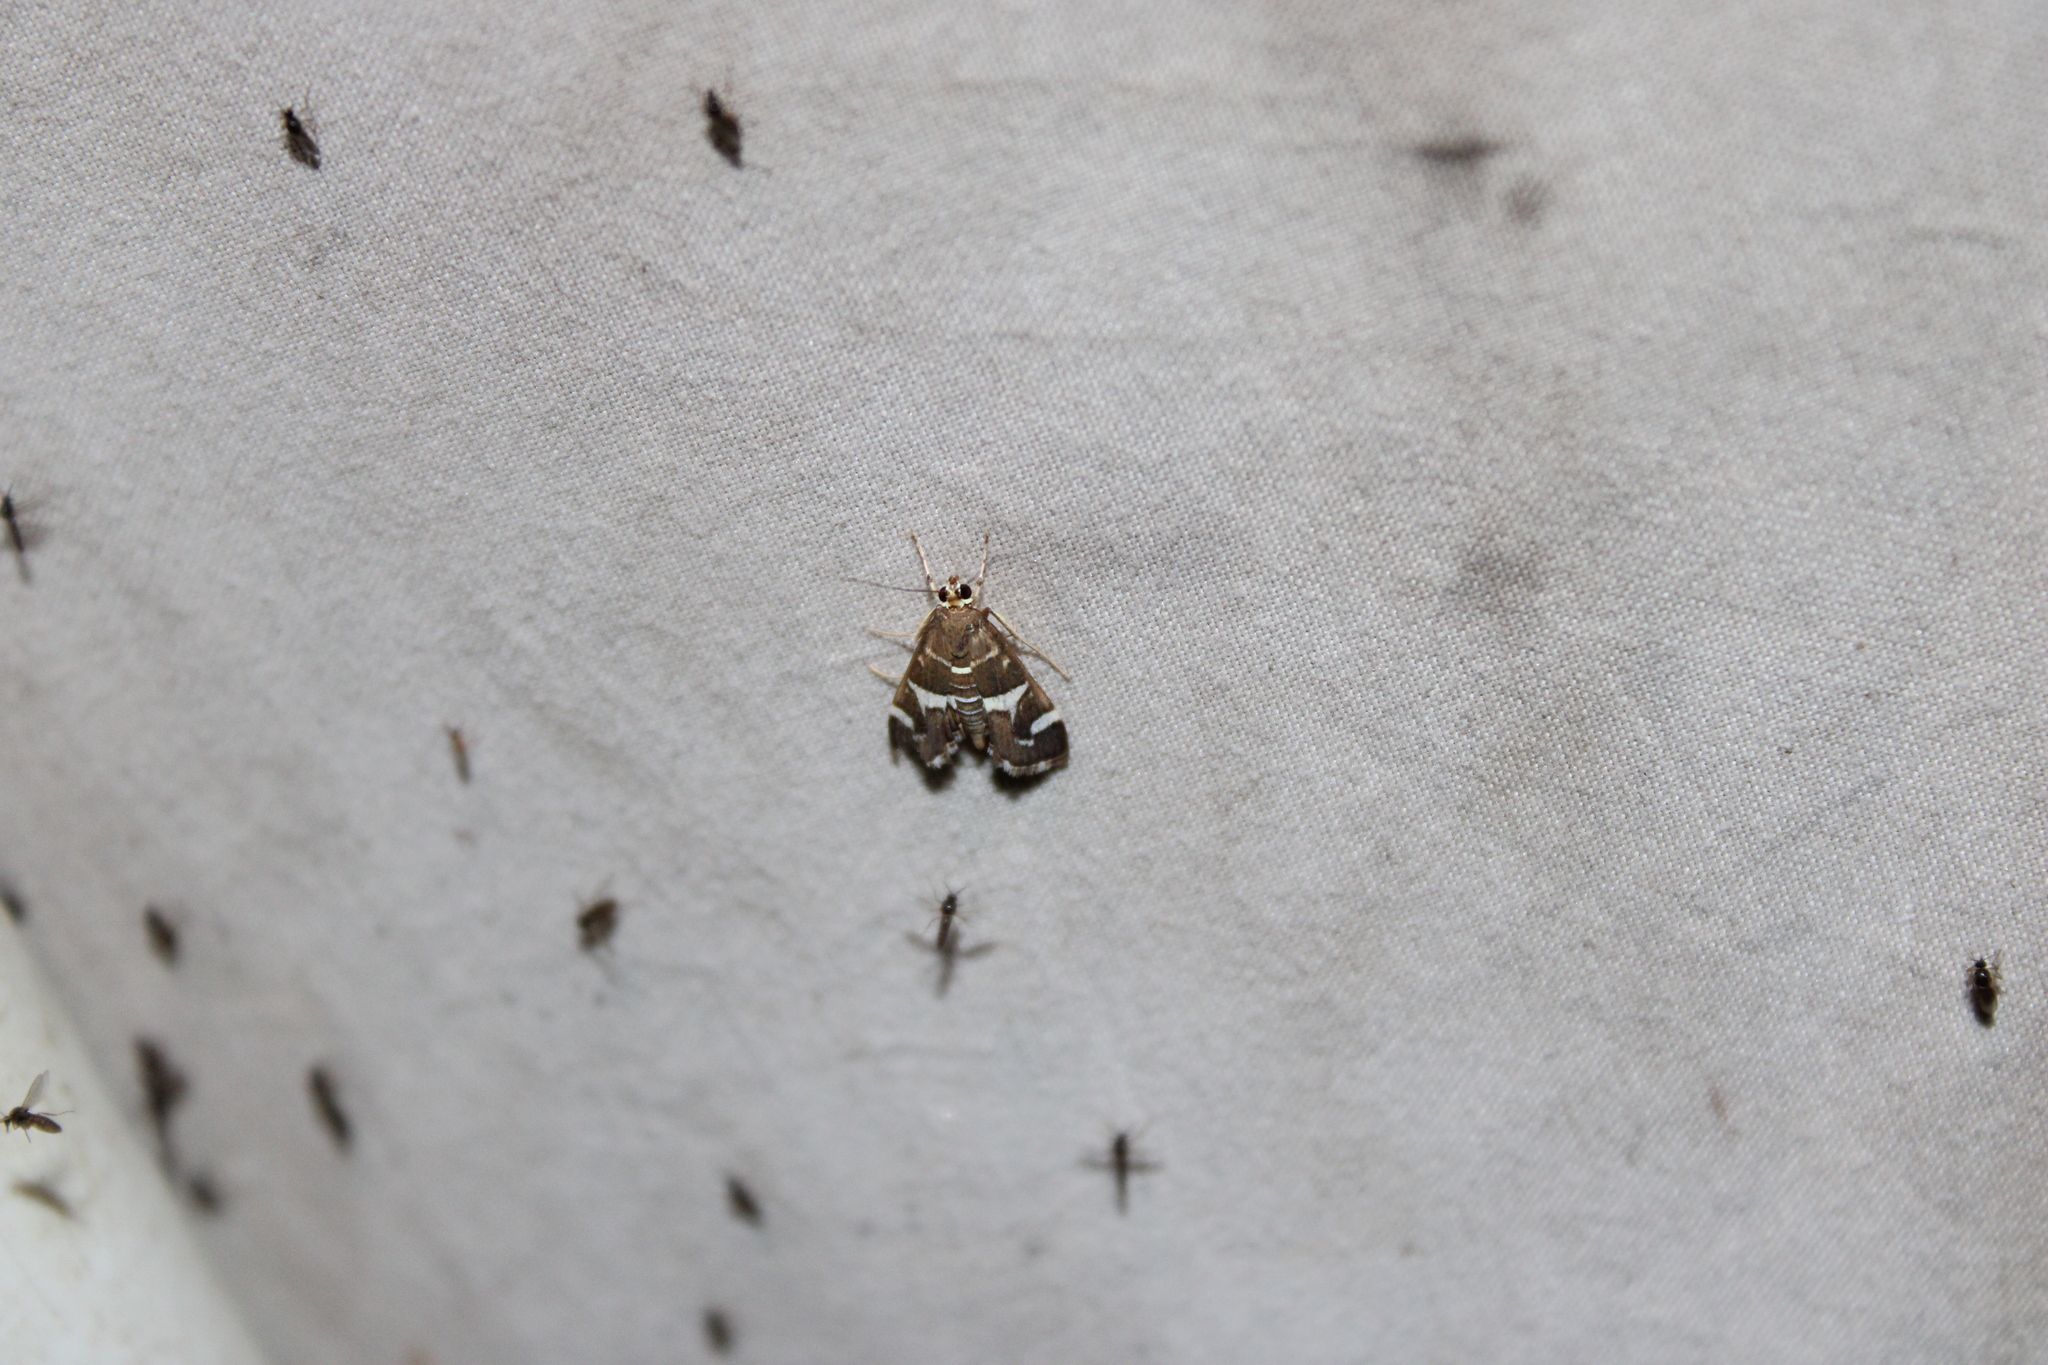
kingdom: Animalia
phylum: Arthropoda
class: Insecta
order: Lepidoptera
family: Crambidae
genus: Spoladea
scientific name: Spoladea recurvalis
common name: Beet webworm moth
